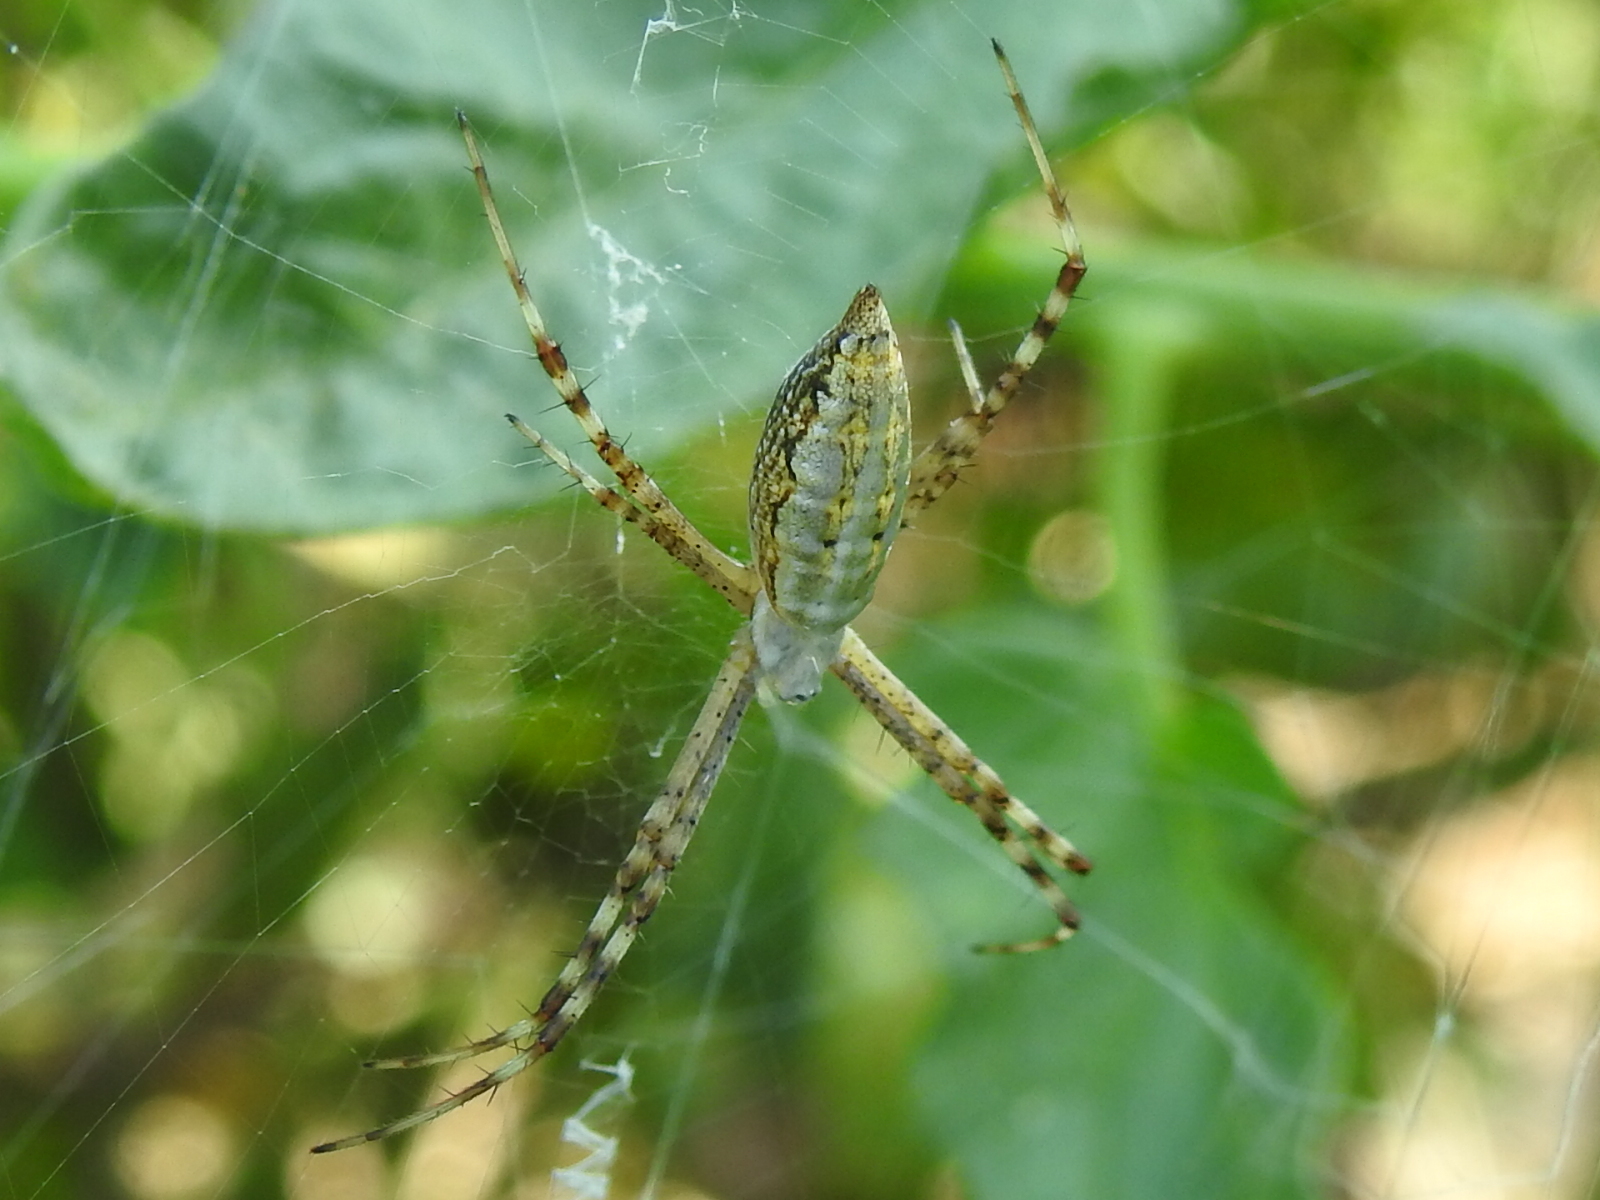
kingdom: Animalia
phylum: Arthropoda
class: Arachnida
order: Araneae
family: Araneidae
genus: Argiope
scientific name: Argiope trifasciata
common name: Banded garden spider
